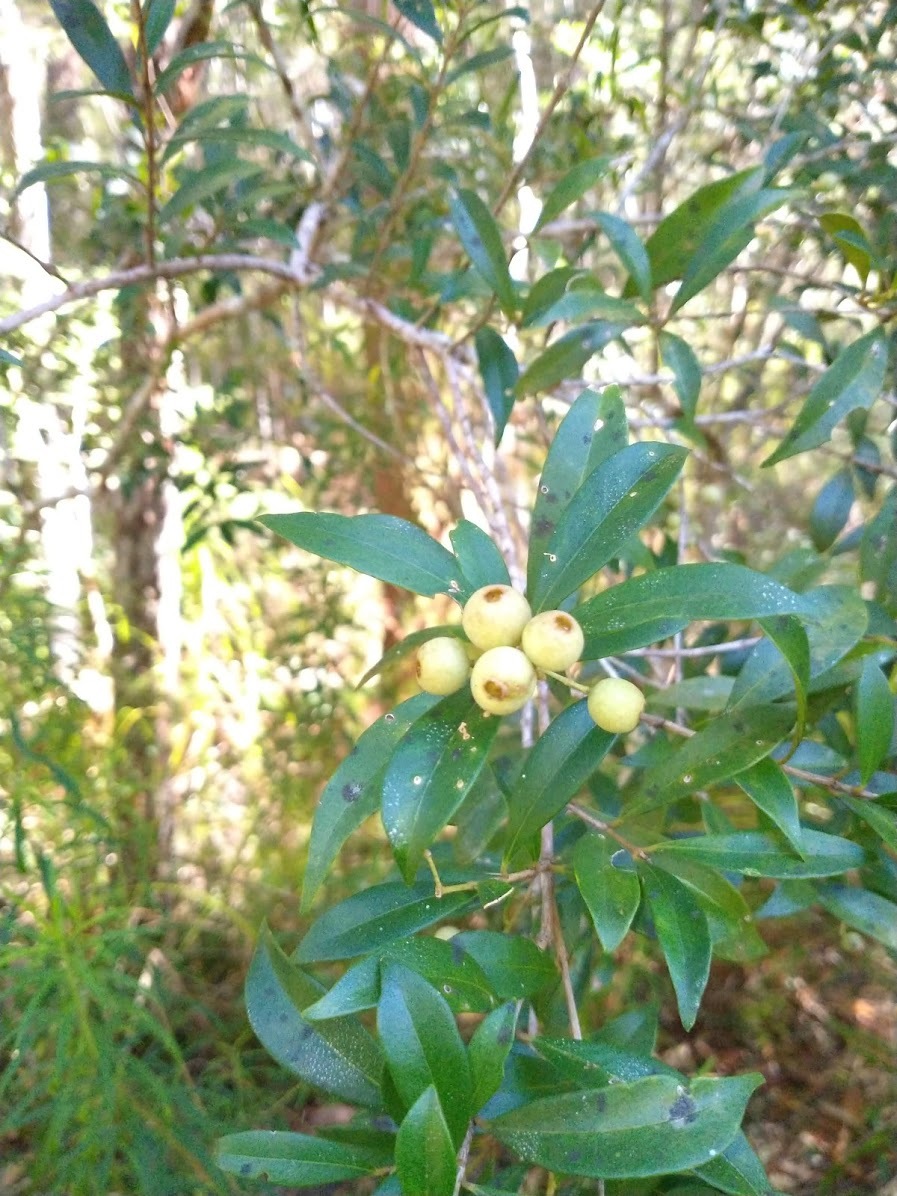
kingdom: Plantae
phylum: Tracheophyta
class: Magnoliopsida
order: Myrtales
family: Myrtaceae
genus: Syzygium
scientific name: Syzygium smithii
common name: Lilly-pilly
